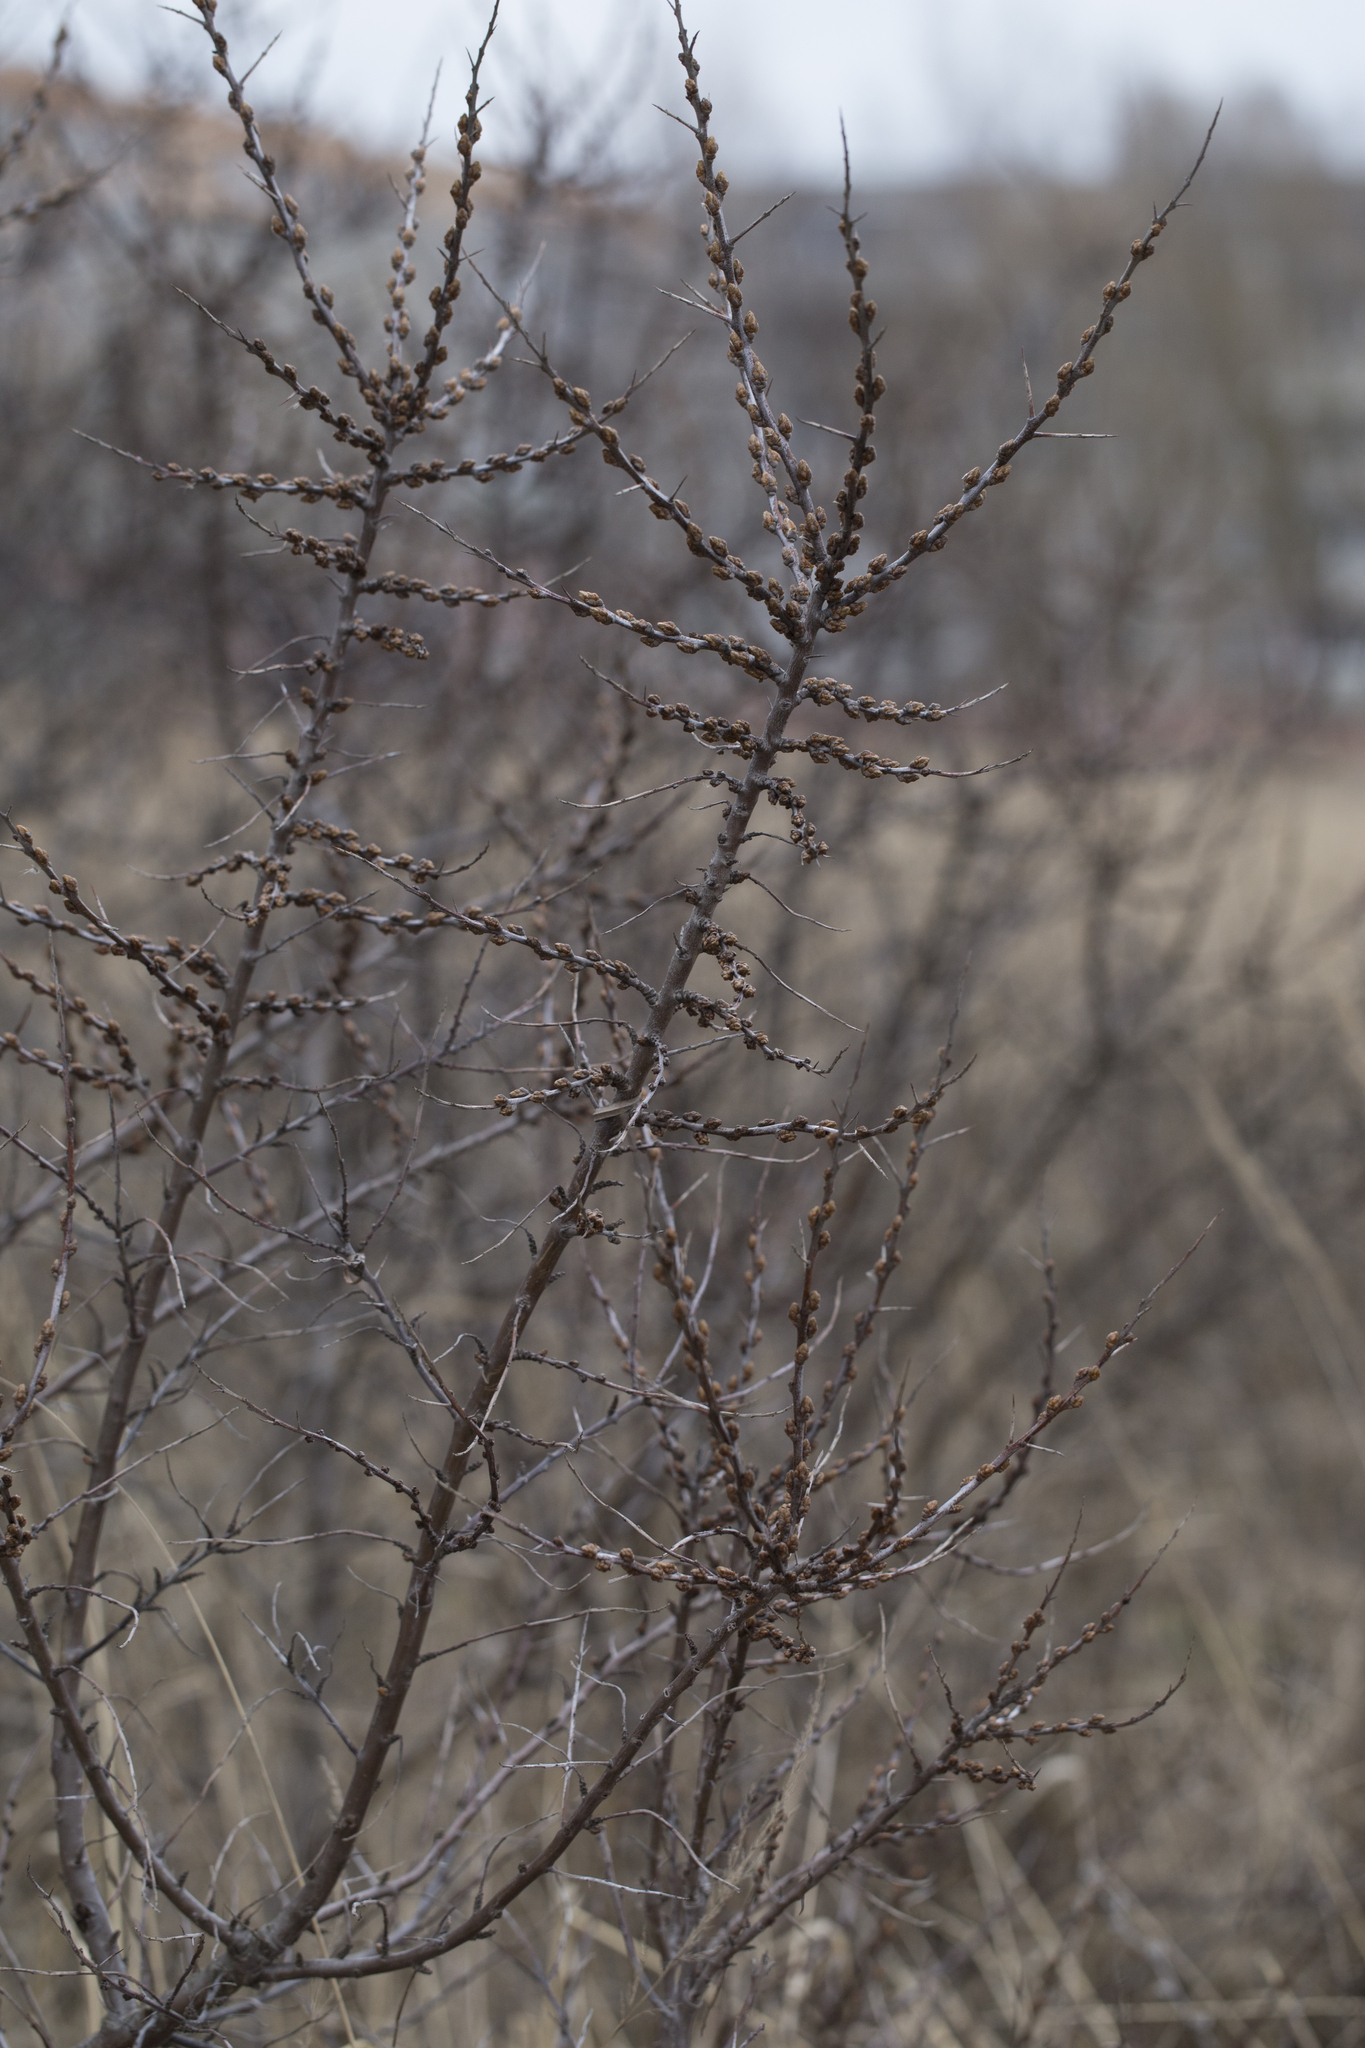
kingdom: Plantae
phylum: Tracheophyta
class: Magnoliopsida
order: Rosales
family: Elaeagnaceae
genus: Hippophae
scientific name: Hippophae rhamnoides
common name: Sea-buckthorn
